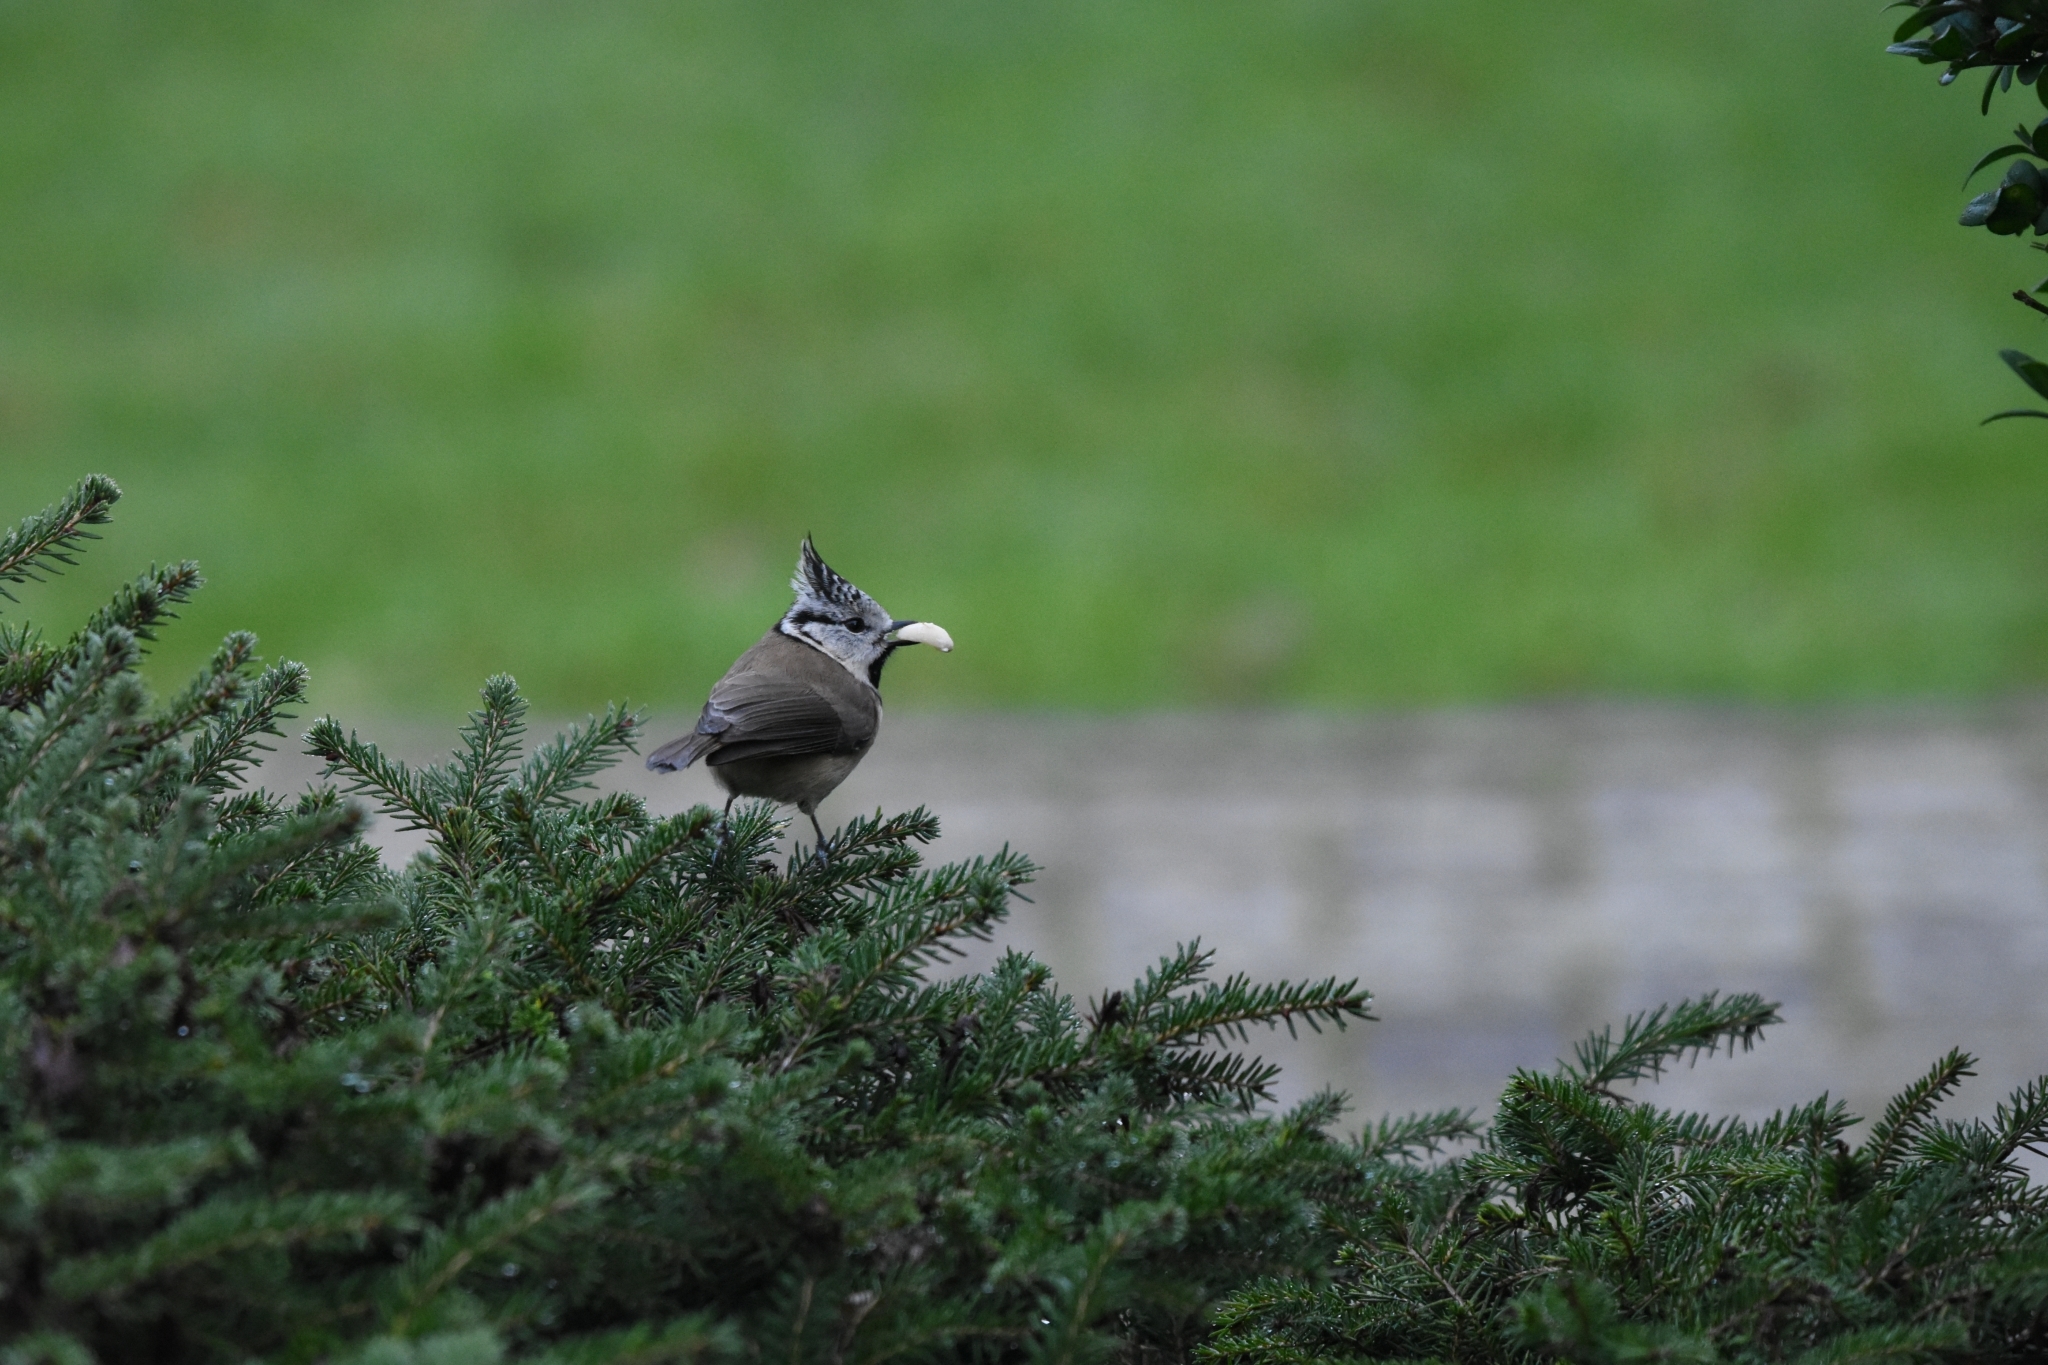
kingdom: Animalia
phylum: Chordata
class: Aves
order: Passeriformes
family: Paridae
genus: Lophophanes
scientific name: Lophophanes cristatus
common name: European crested tit
